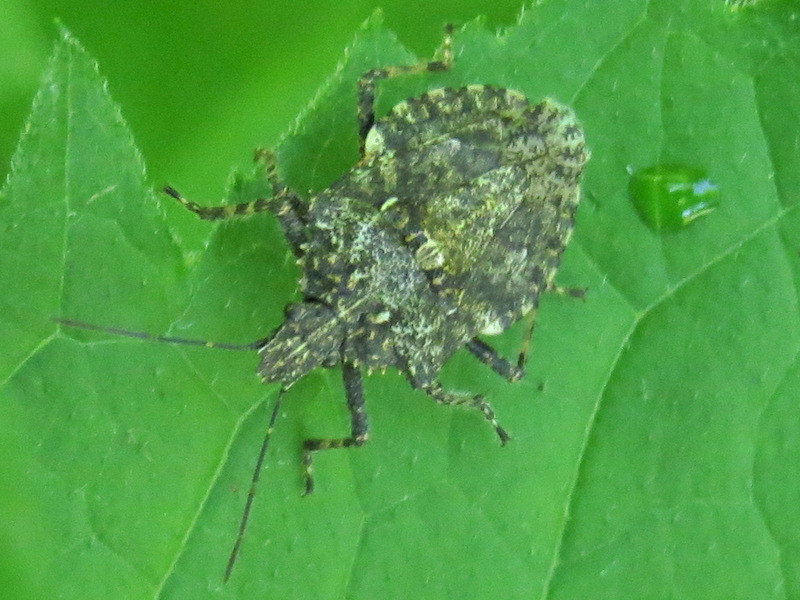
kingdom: Animalia
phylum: Arthropoda
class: Insecta
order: Hemiptera
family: Pentatomidae
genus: Brochymena
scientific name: Brochymena arborea
